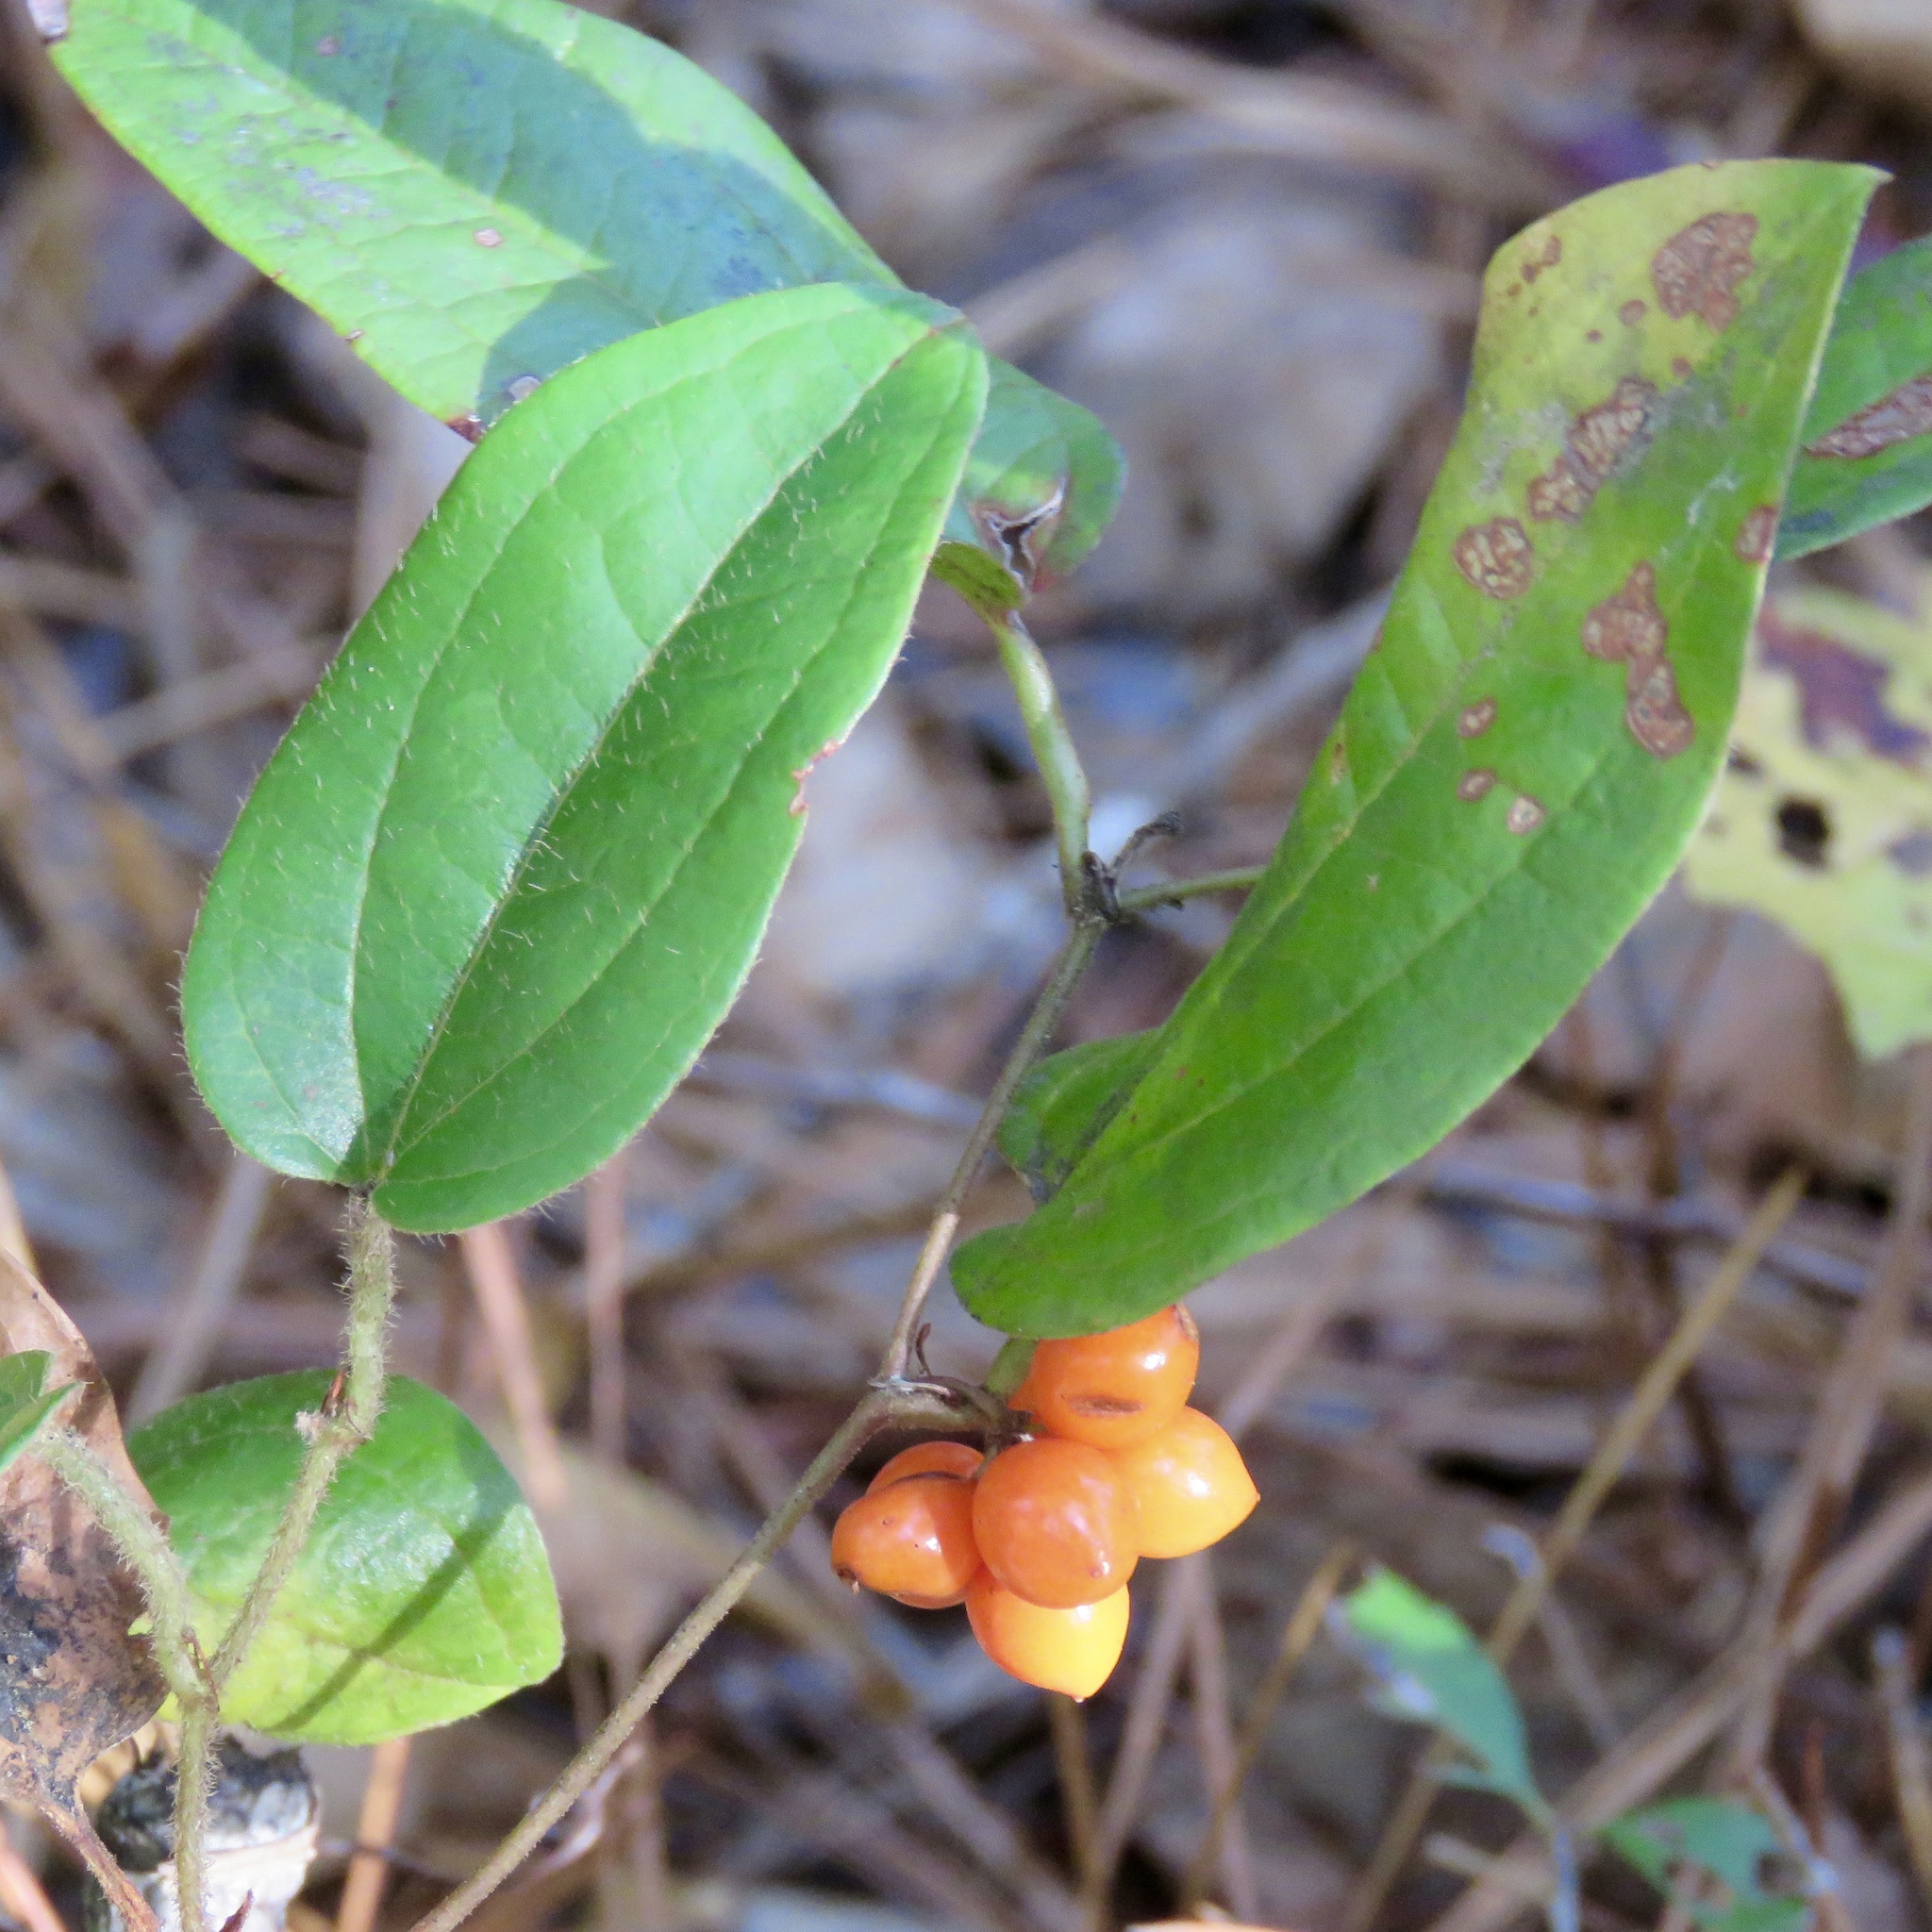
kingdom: Plantae
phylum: Tracheophyta
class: Liliopsida
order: Liliales
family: Smilacaceae
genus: Smilax
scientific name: Smilax pumila
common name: Sarsaparilla-vine
